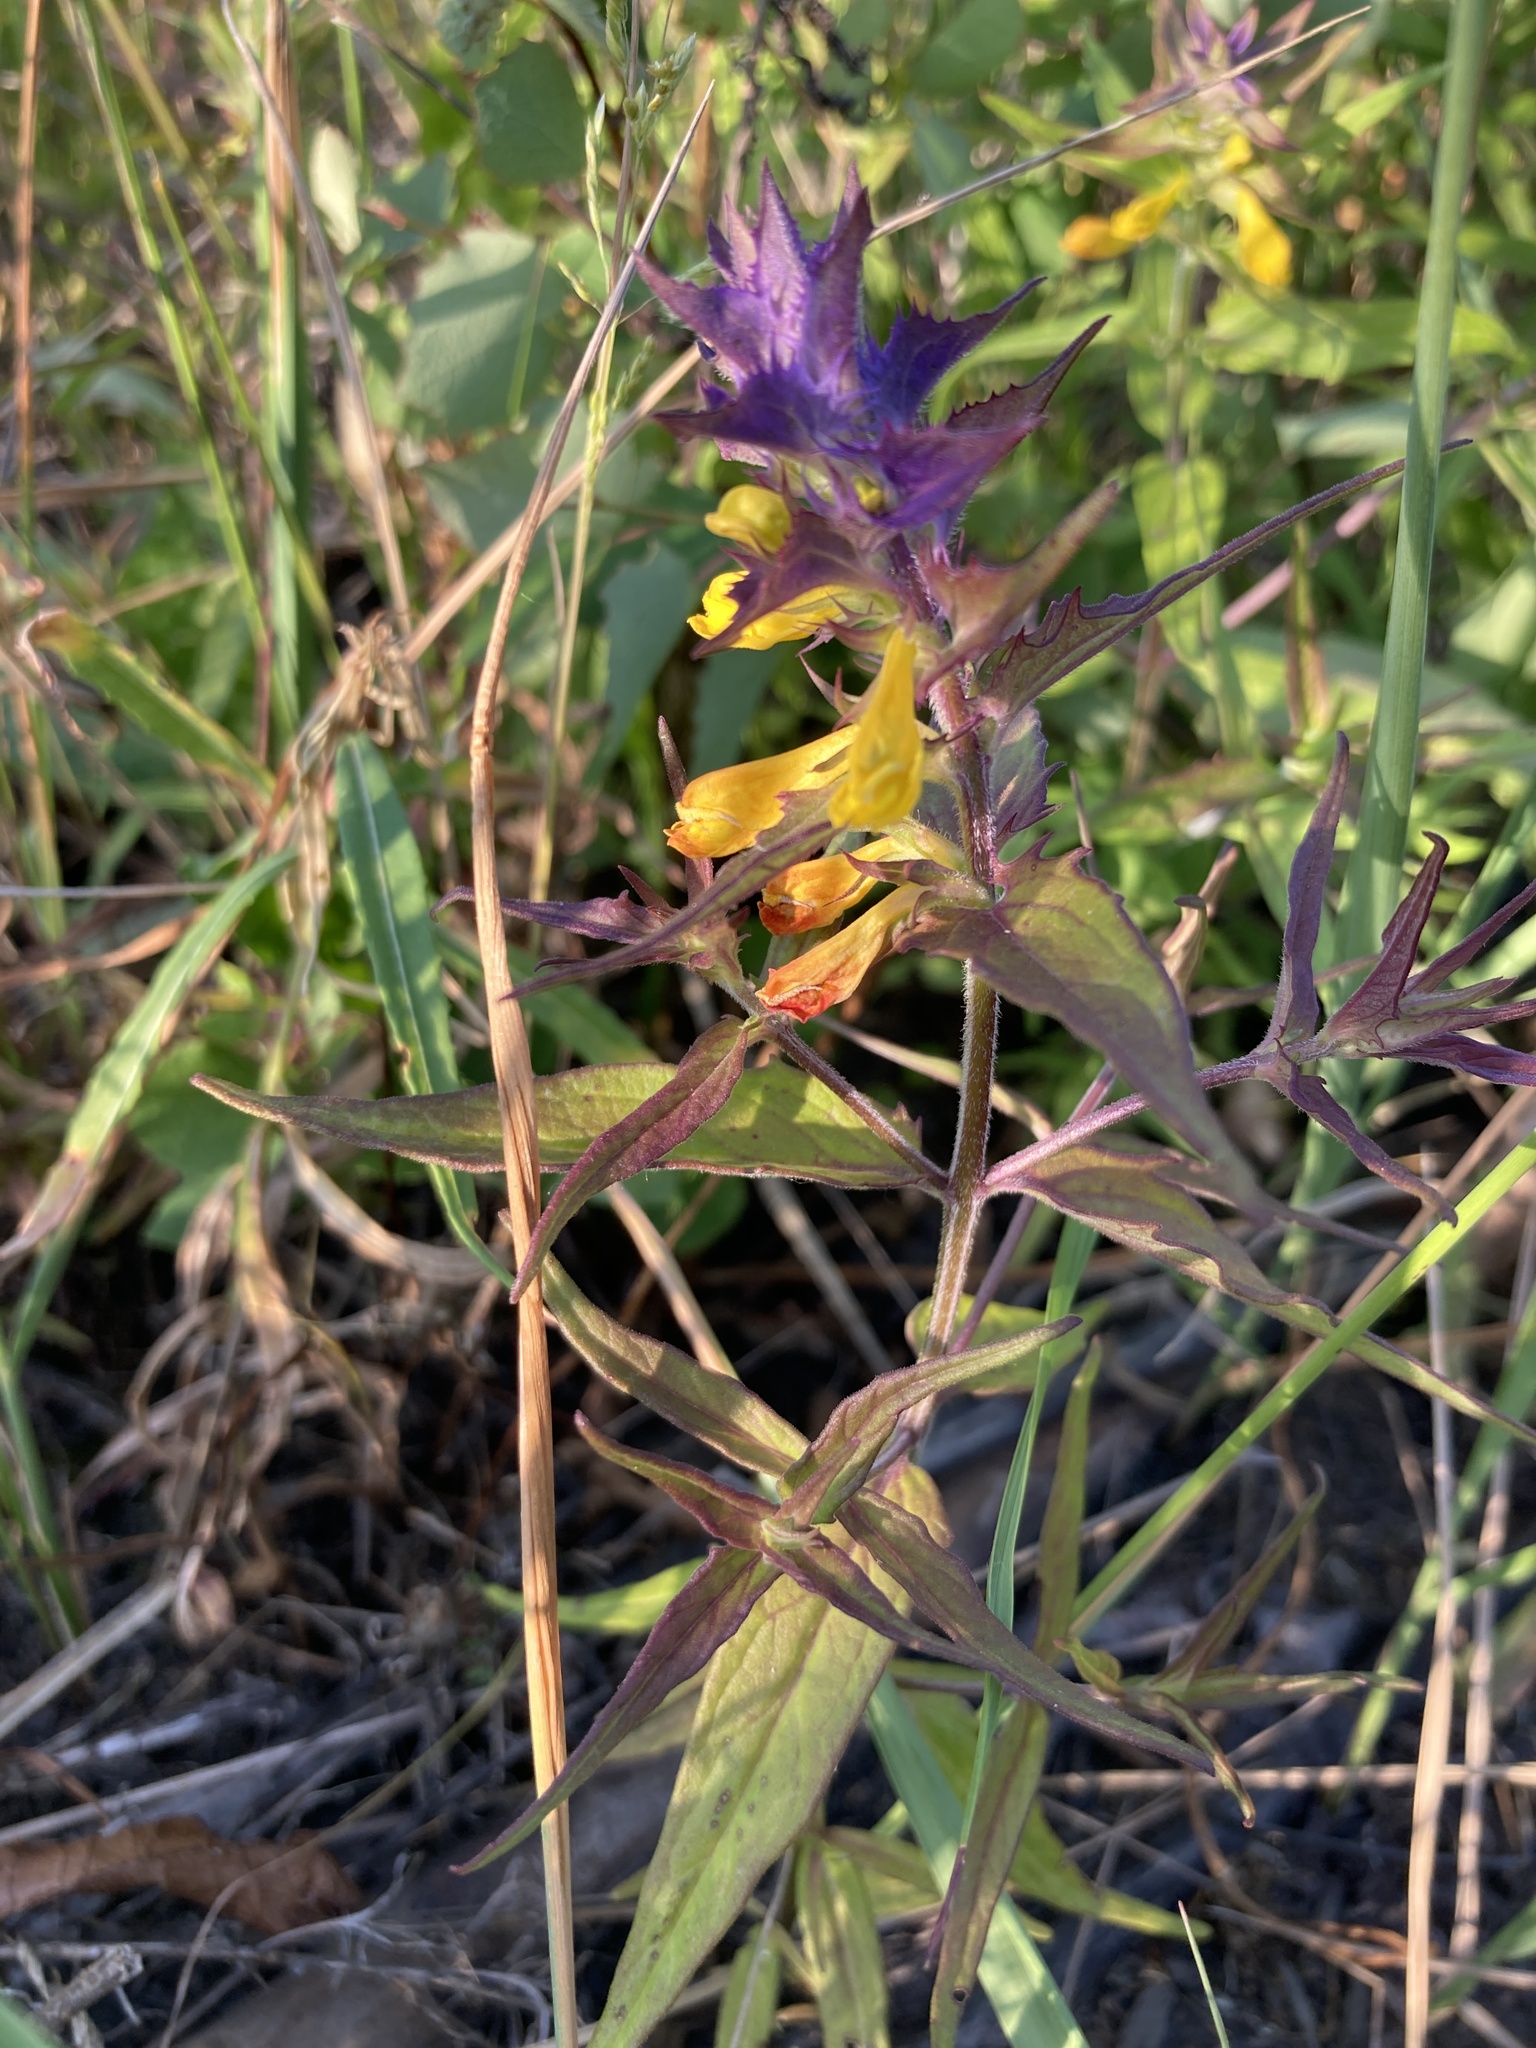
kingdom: Plantae
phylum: Tracheophyta
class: Magnoliopsida
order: Lamiales
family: Orobanchaceae
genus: Melampyrum
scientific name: Melampyrum nemorosum
